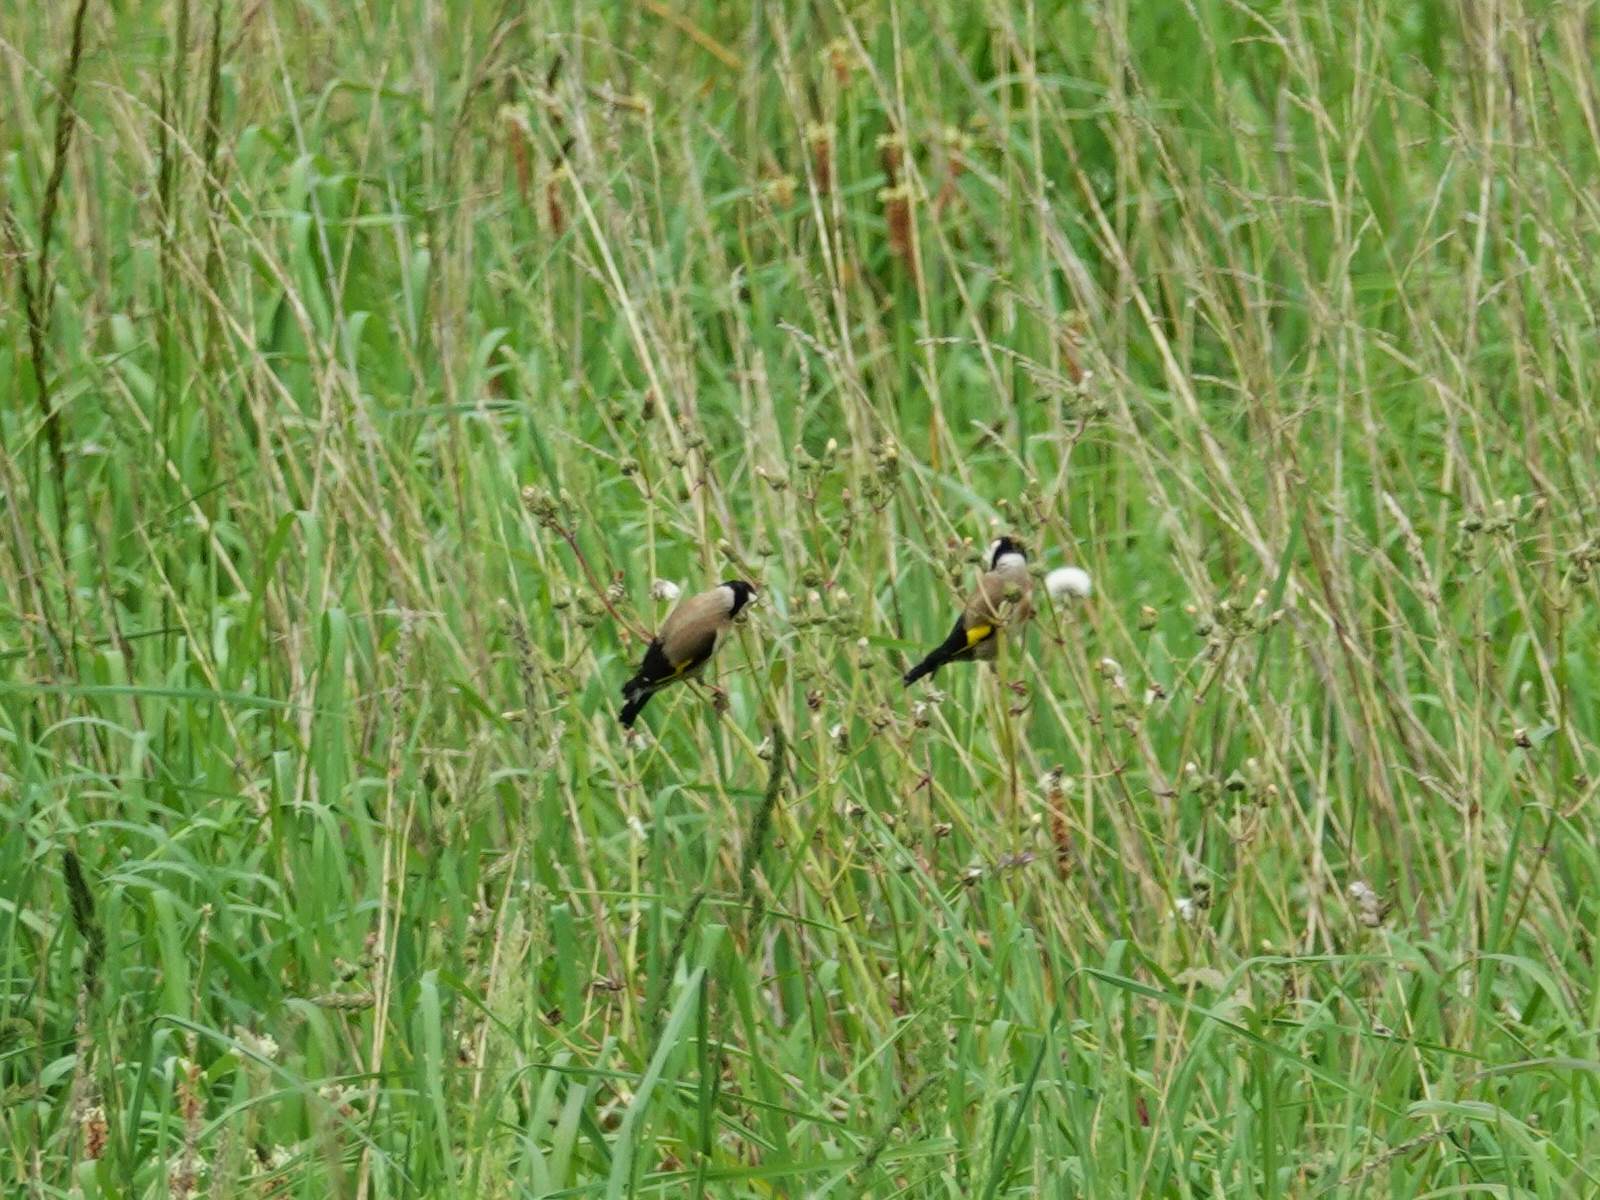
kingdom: Animalia
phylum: Chordata
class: Aves
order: Passeriformes
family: Fringillidae
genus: Carduelis
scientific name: Carduelis carduelis
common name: European goldfinch
